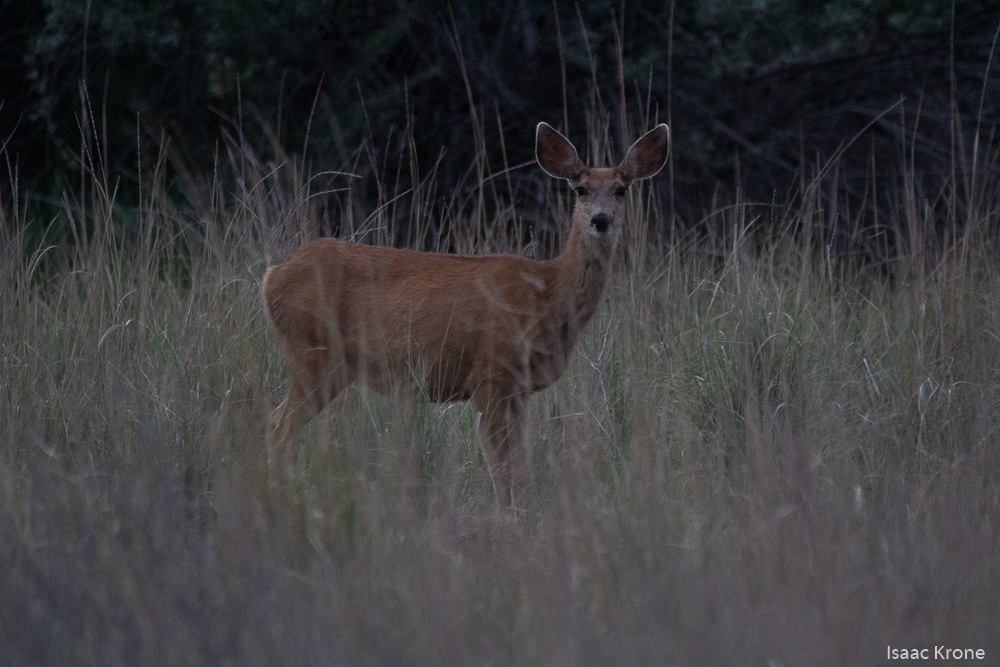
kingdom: Animalia
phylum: Chordata
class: Mammalia
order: Artiodactyla
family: Cervidae
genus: Odocoileus
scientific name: Odocoileus hemionus
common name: Mule deer
